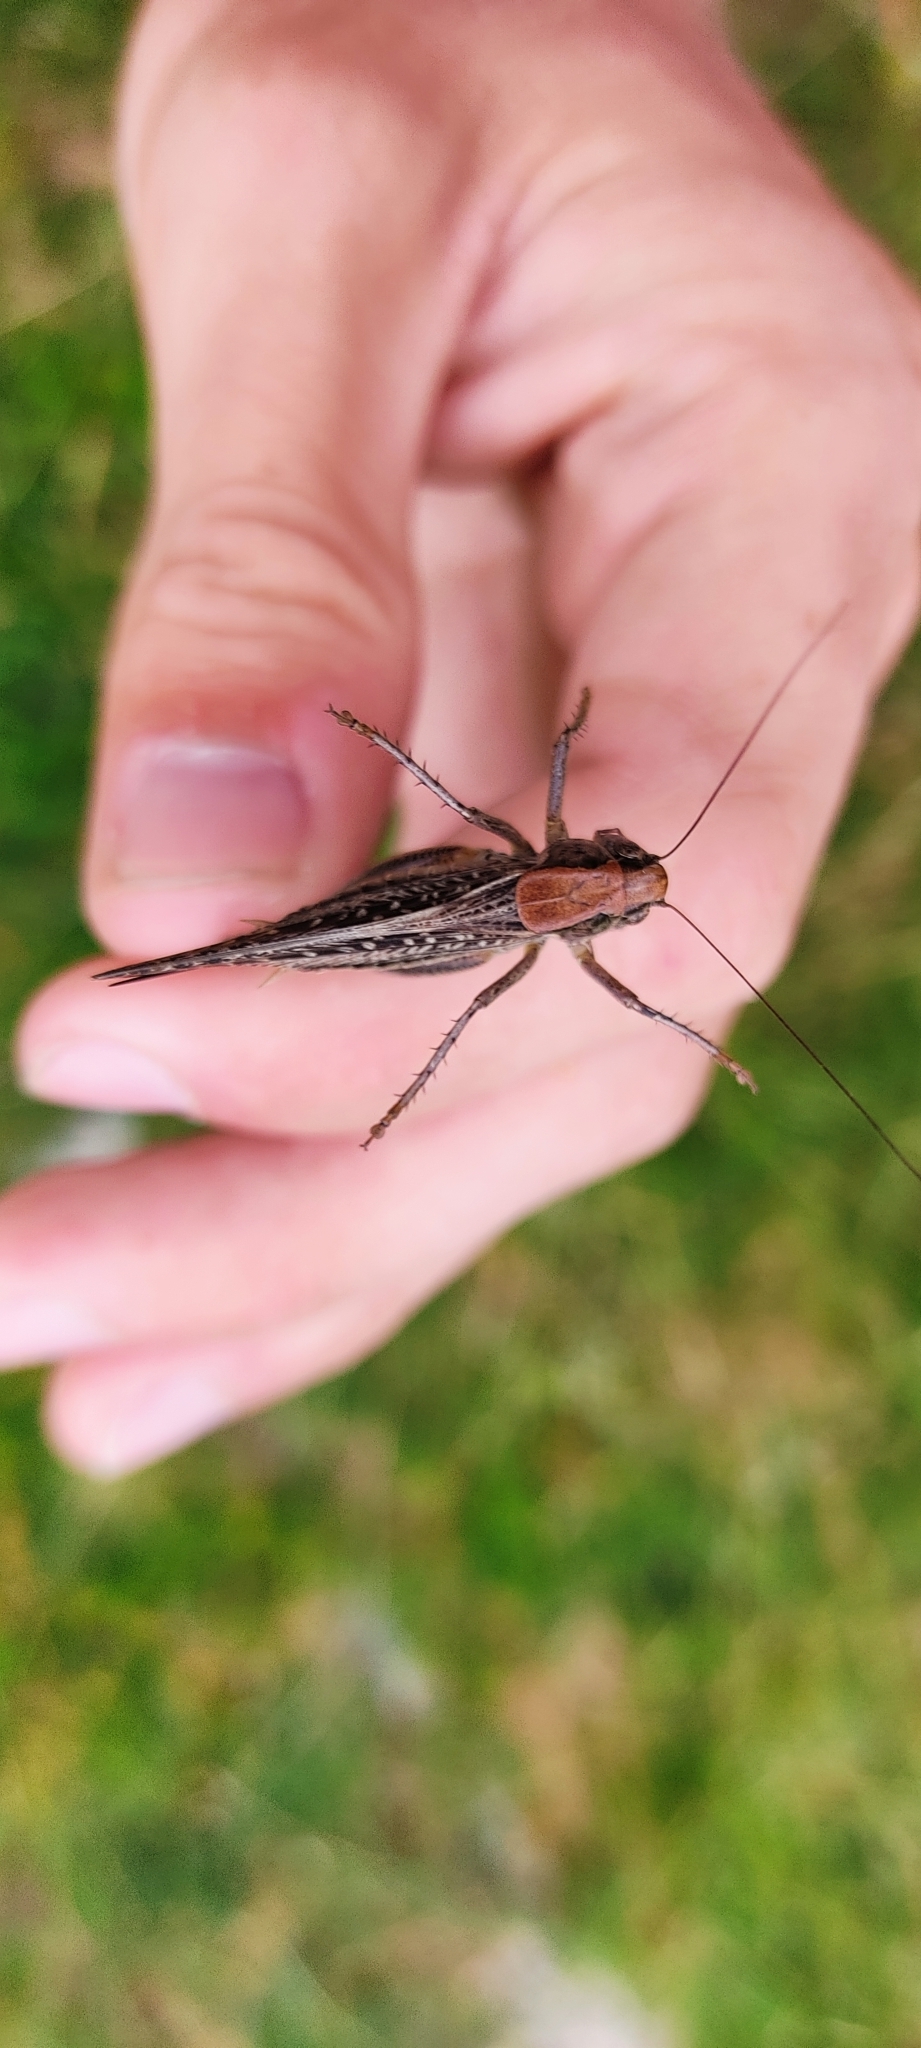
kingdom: Animalia
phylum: Arthropoda
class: Insecta
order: Orthoptera
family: Tettigoniidae
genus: Platycleis
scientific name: Platycleis albopunctata
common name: Grey bush-cricket
